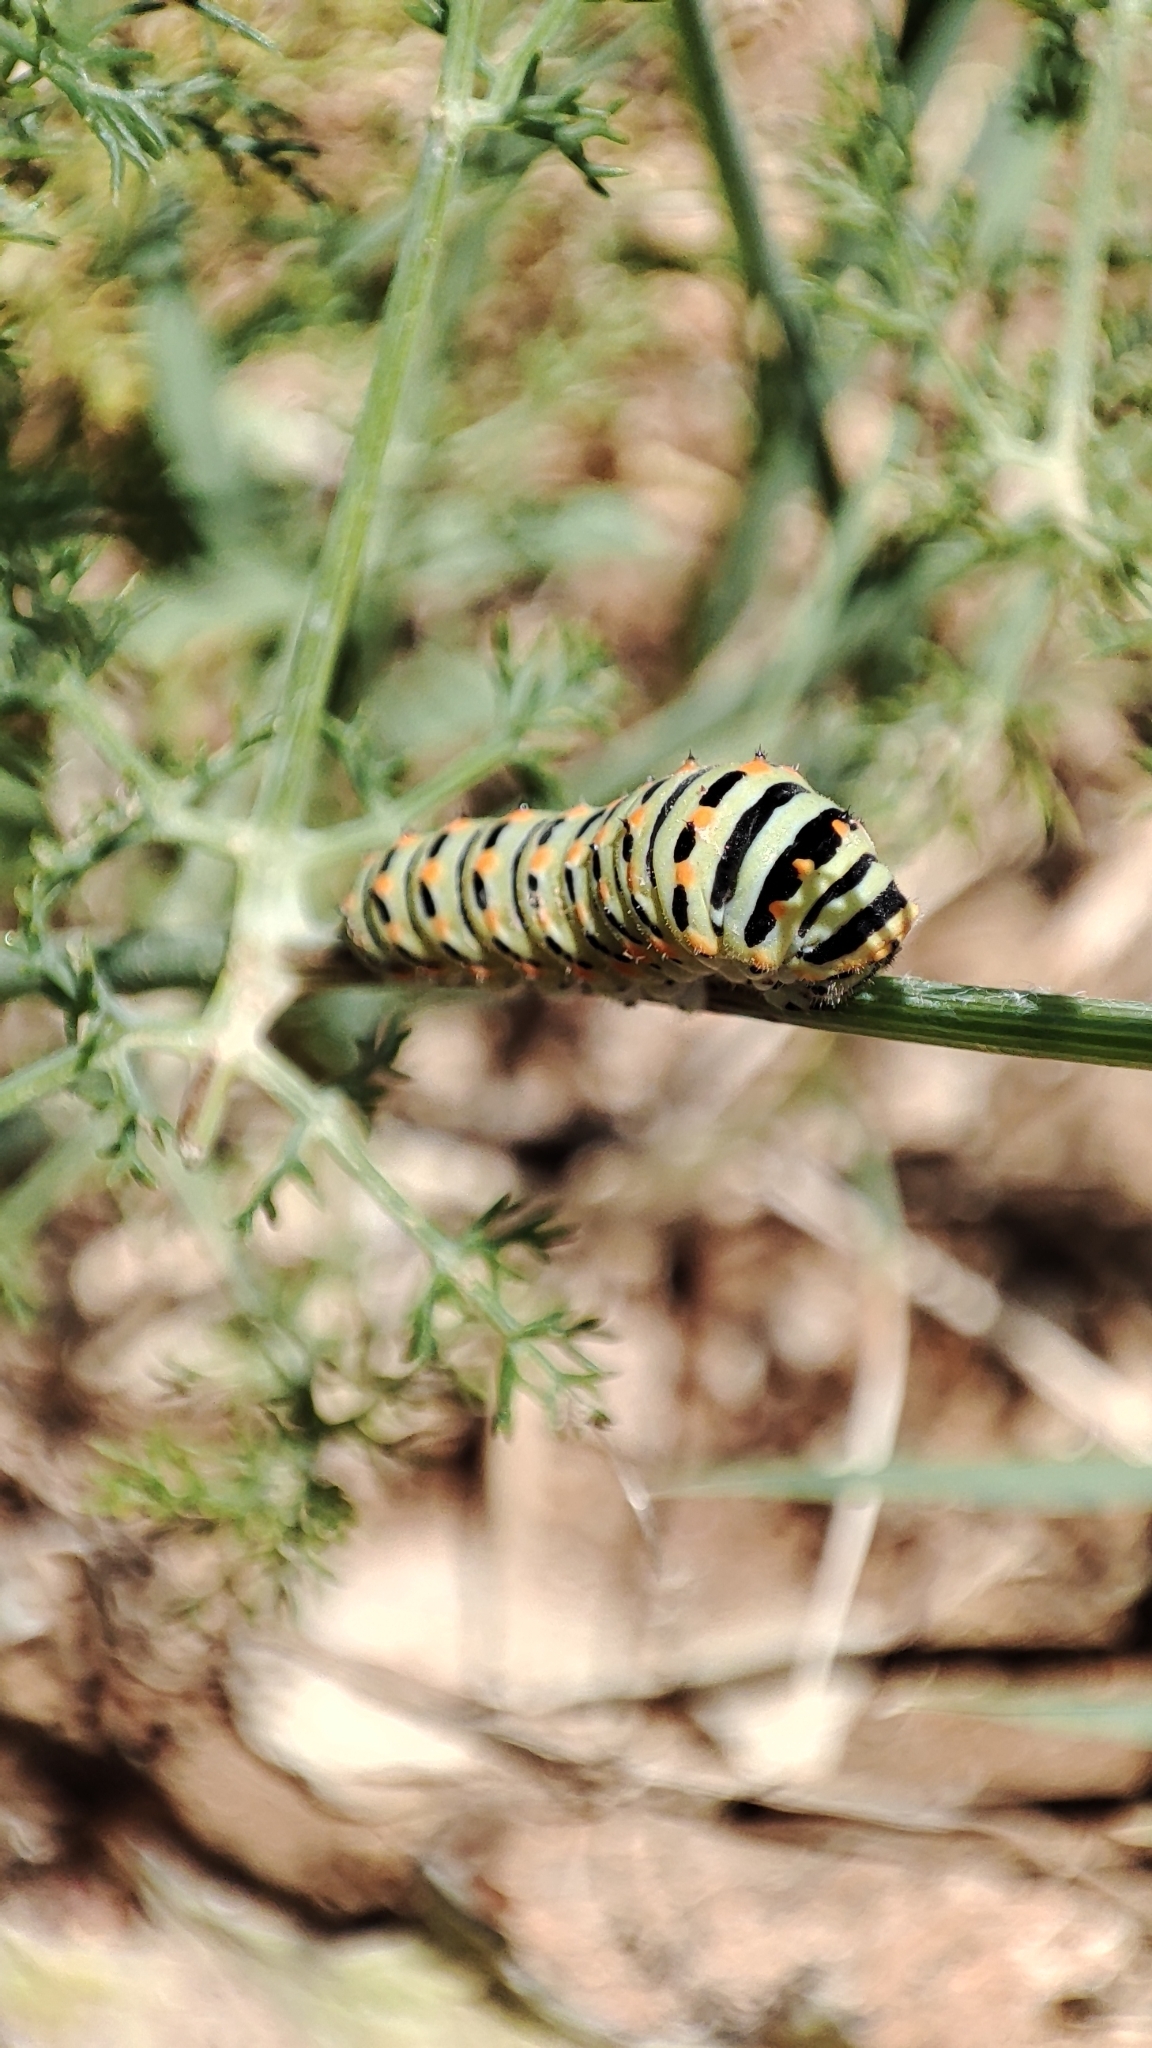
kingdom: Animalia
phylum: Arthropoda
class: Insecta
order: Lepidoptera
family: Papilionidae
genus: Papilio
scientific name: Papilio machaon
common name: Swallowtail
